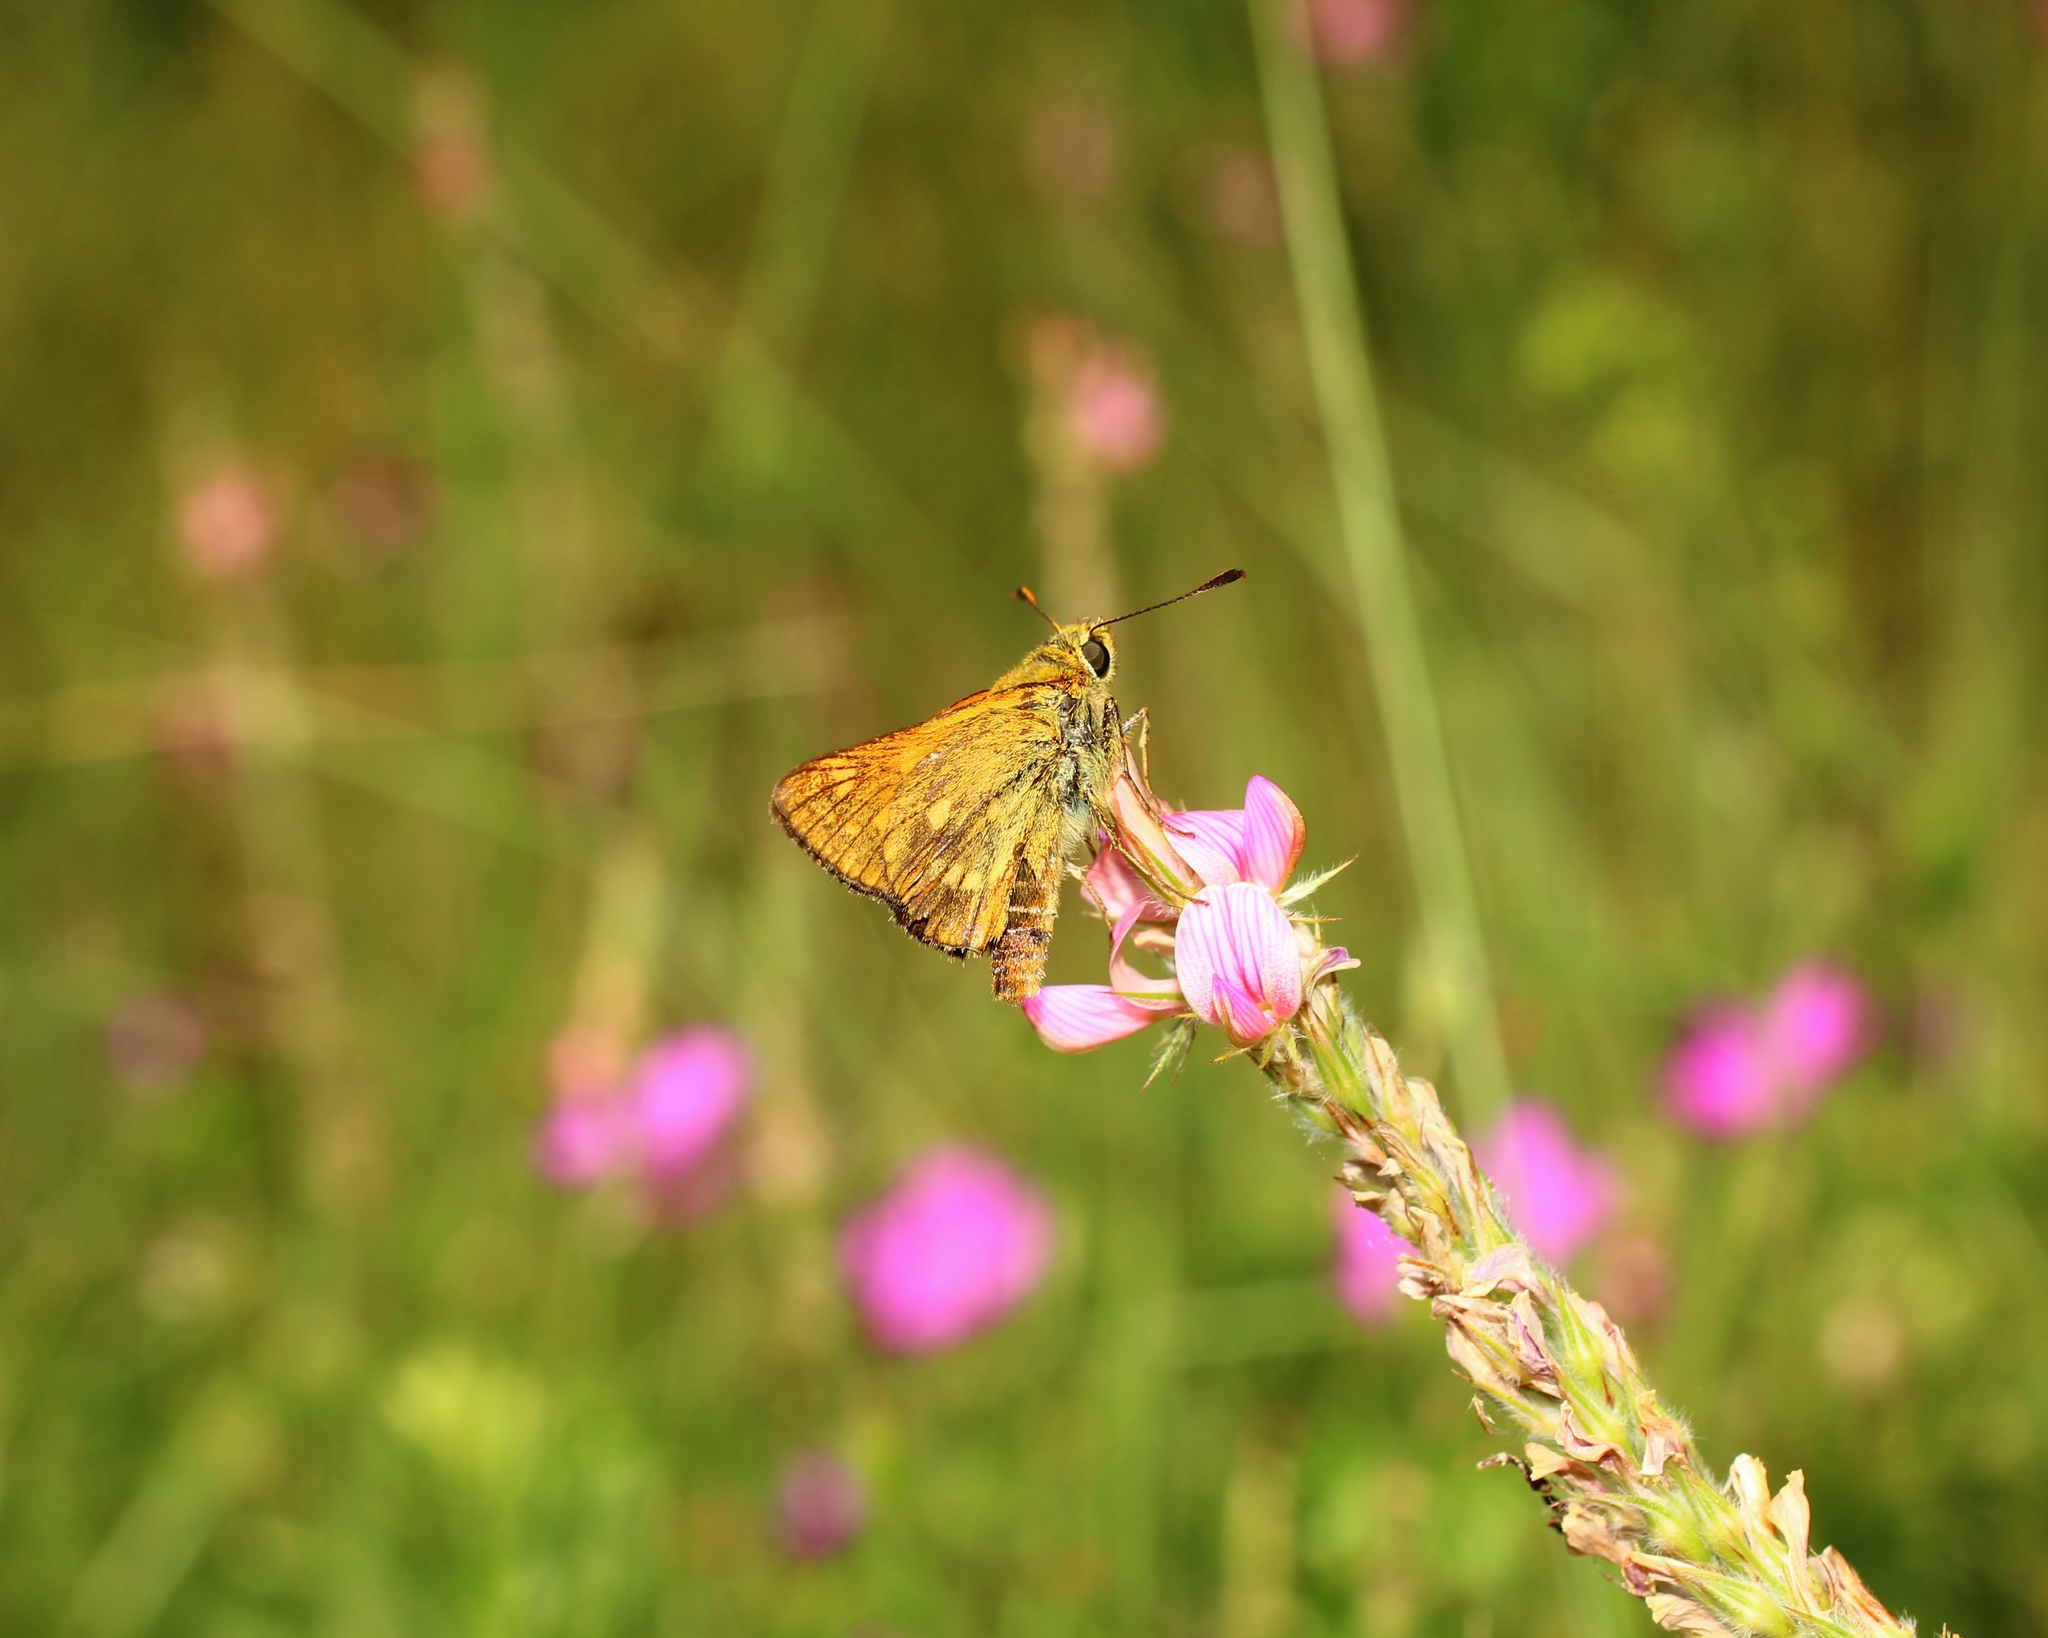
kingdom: Animalia
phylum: Arthropoda
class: Insecta
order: Lepidoptera
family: Hesperiidae
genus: Ochlodes
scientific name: Ochlodes venata
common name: Large skipper
